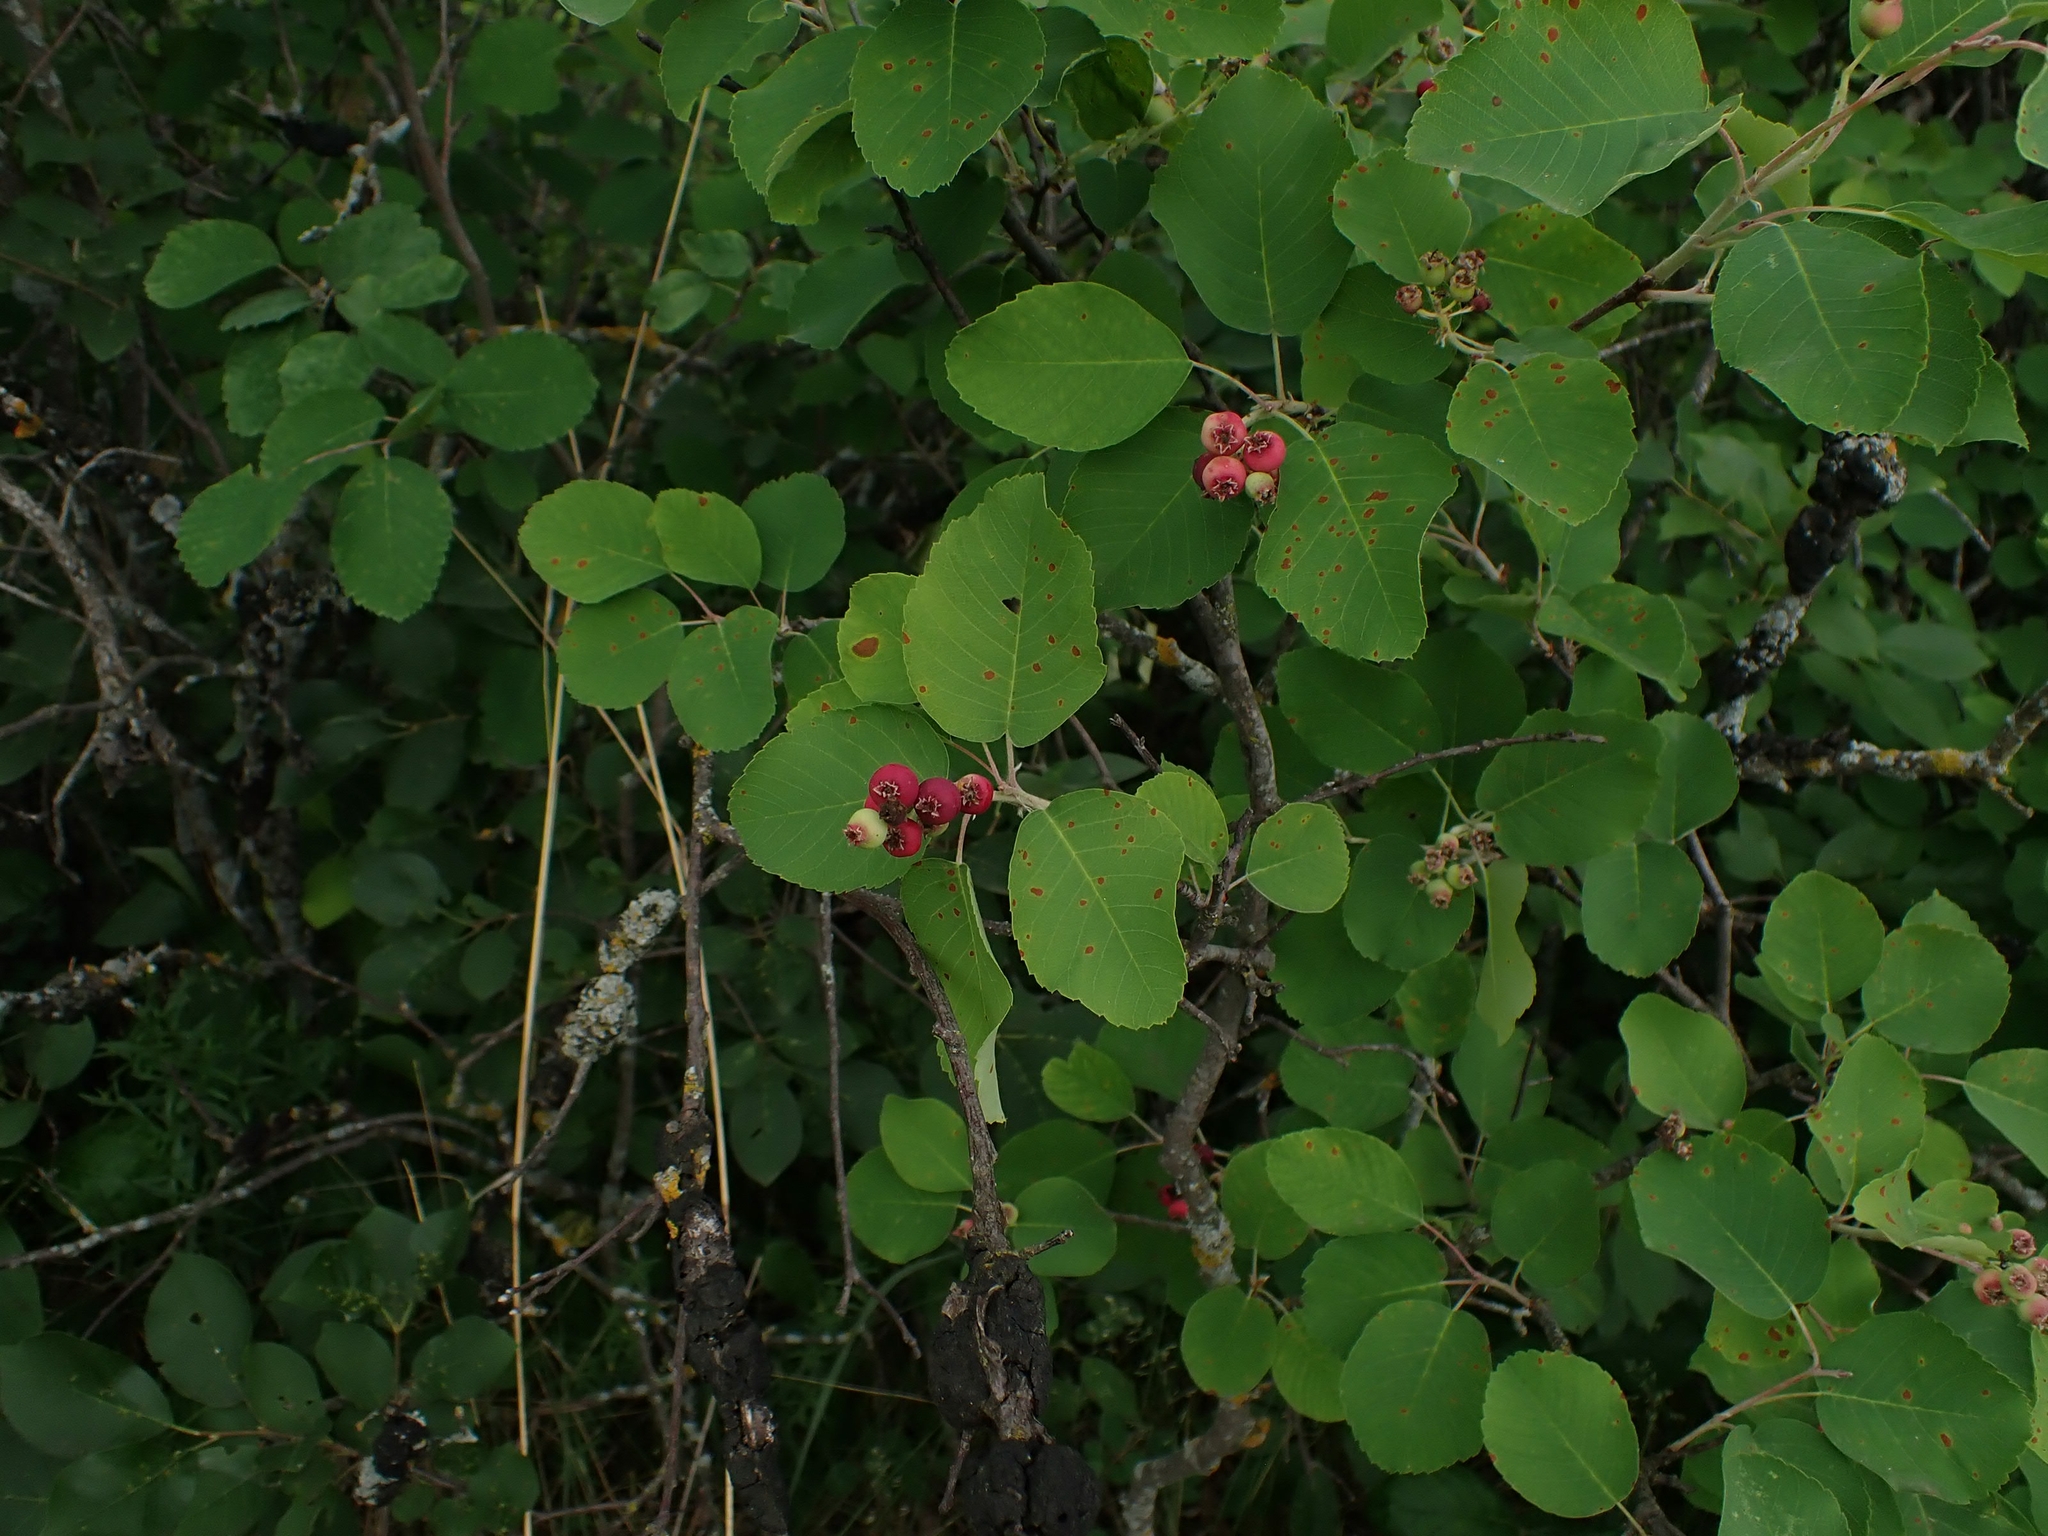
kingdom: Plantae
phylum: Tracheophyta
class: Magnoliopsida
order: Rosales
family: Rosaceae
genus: Amelanchier
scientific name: Amelanchier alnifolia
